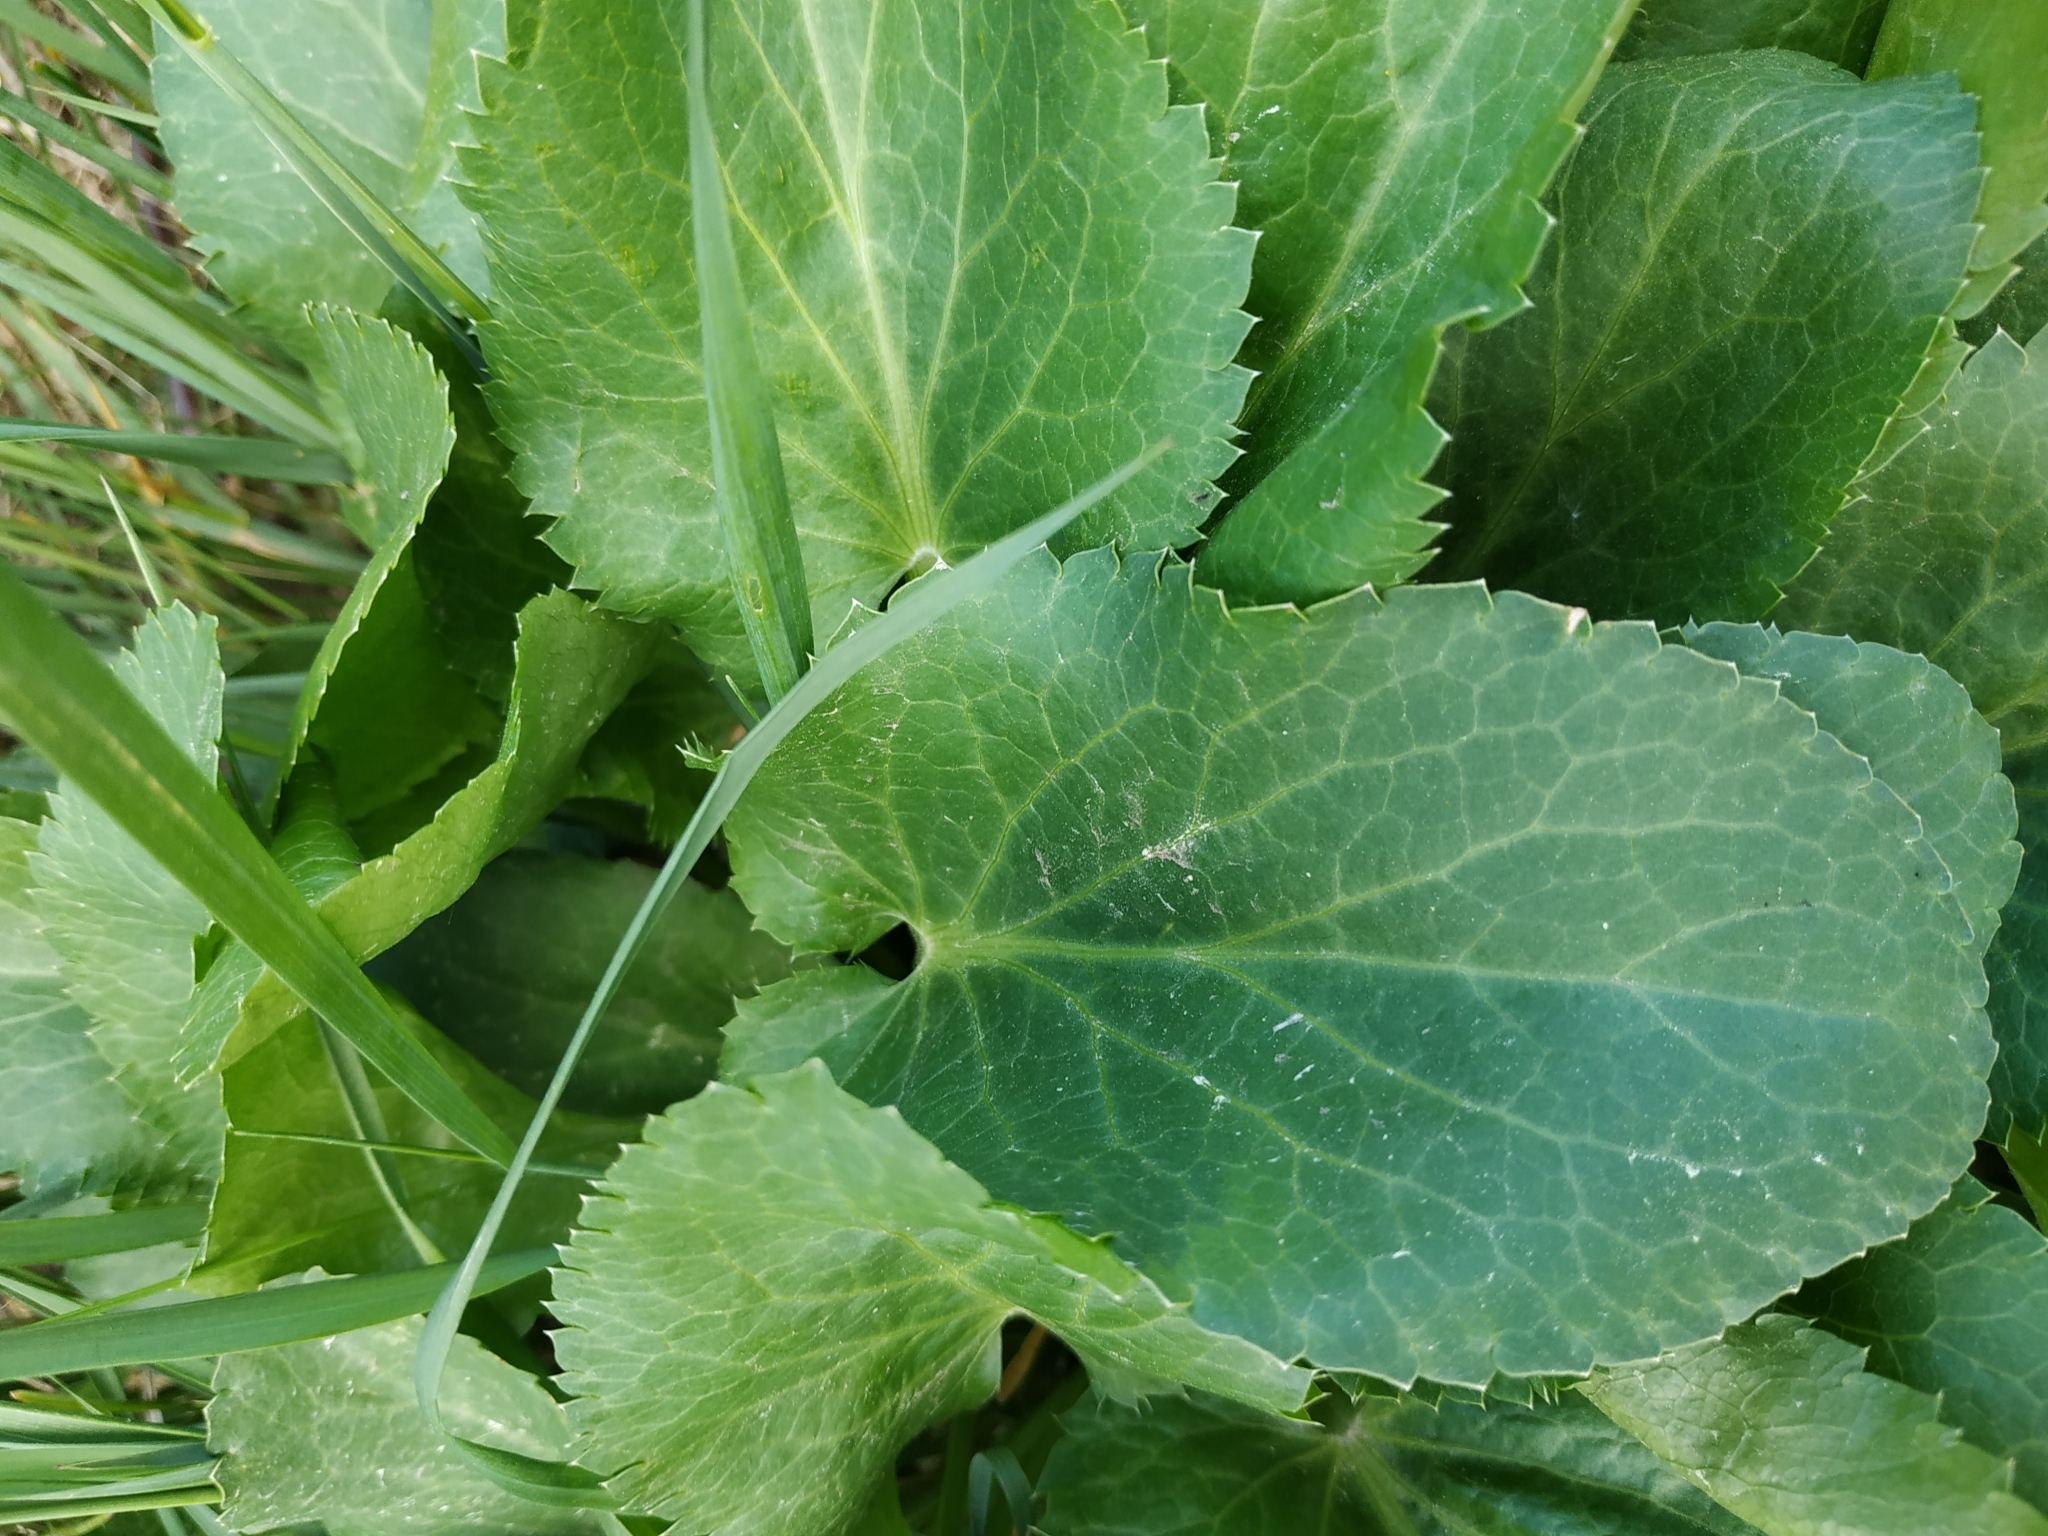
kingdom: Plantae
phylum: Tracheophyta
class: Magnoliopsida
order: Apiales
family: Apiaceae
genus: Eryngium
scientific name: Eryngium planum
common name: Blue eryngo
